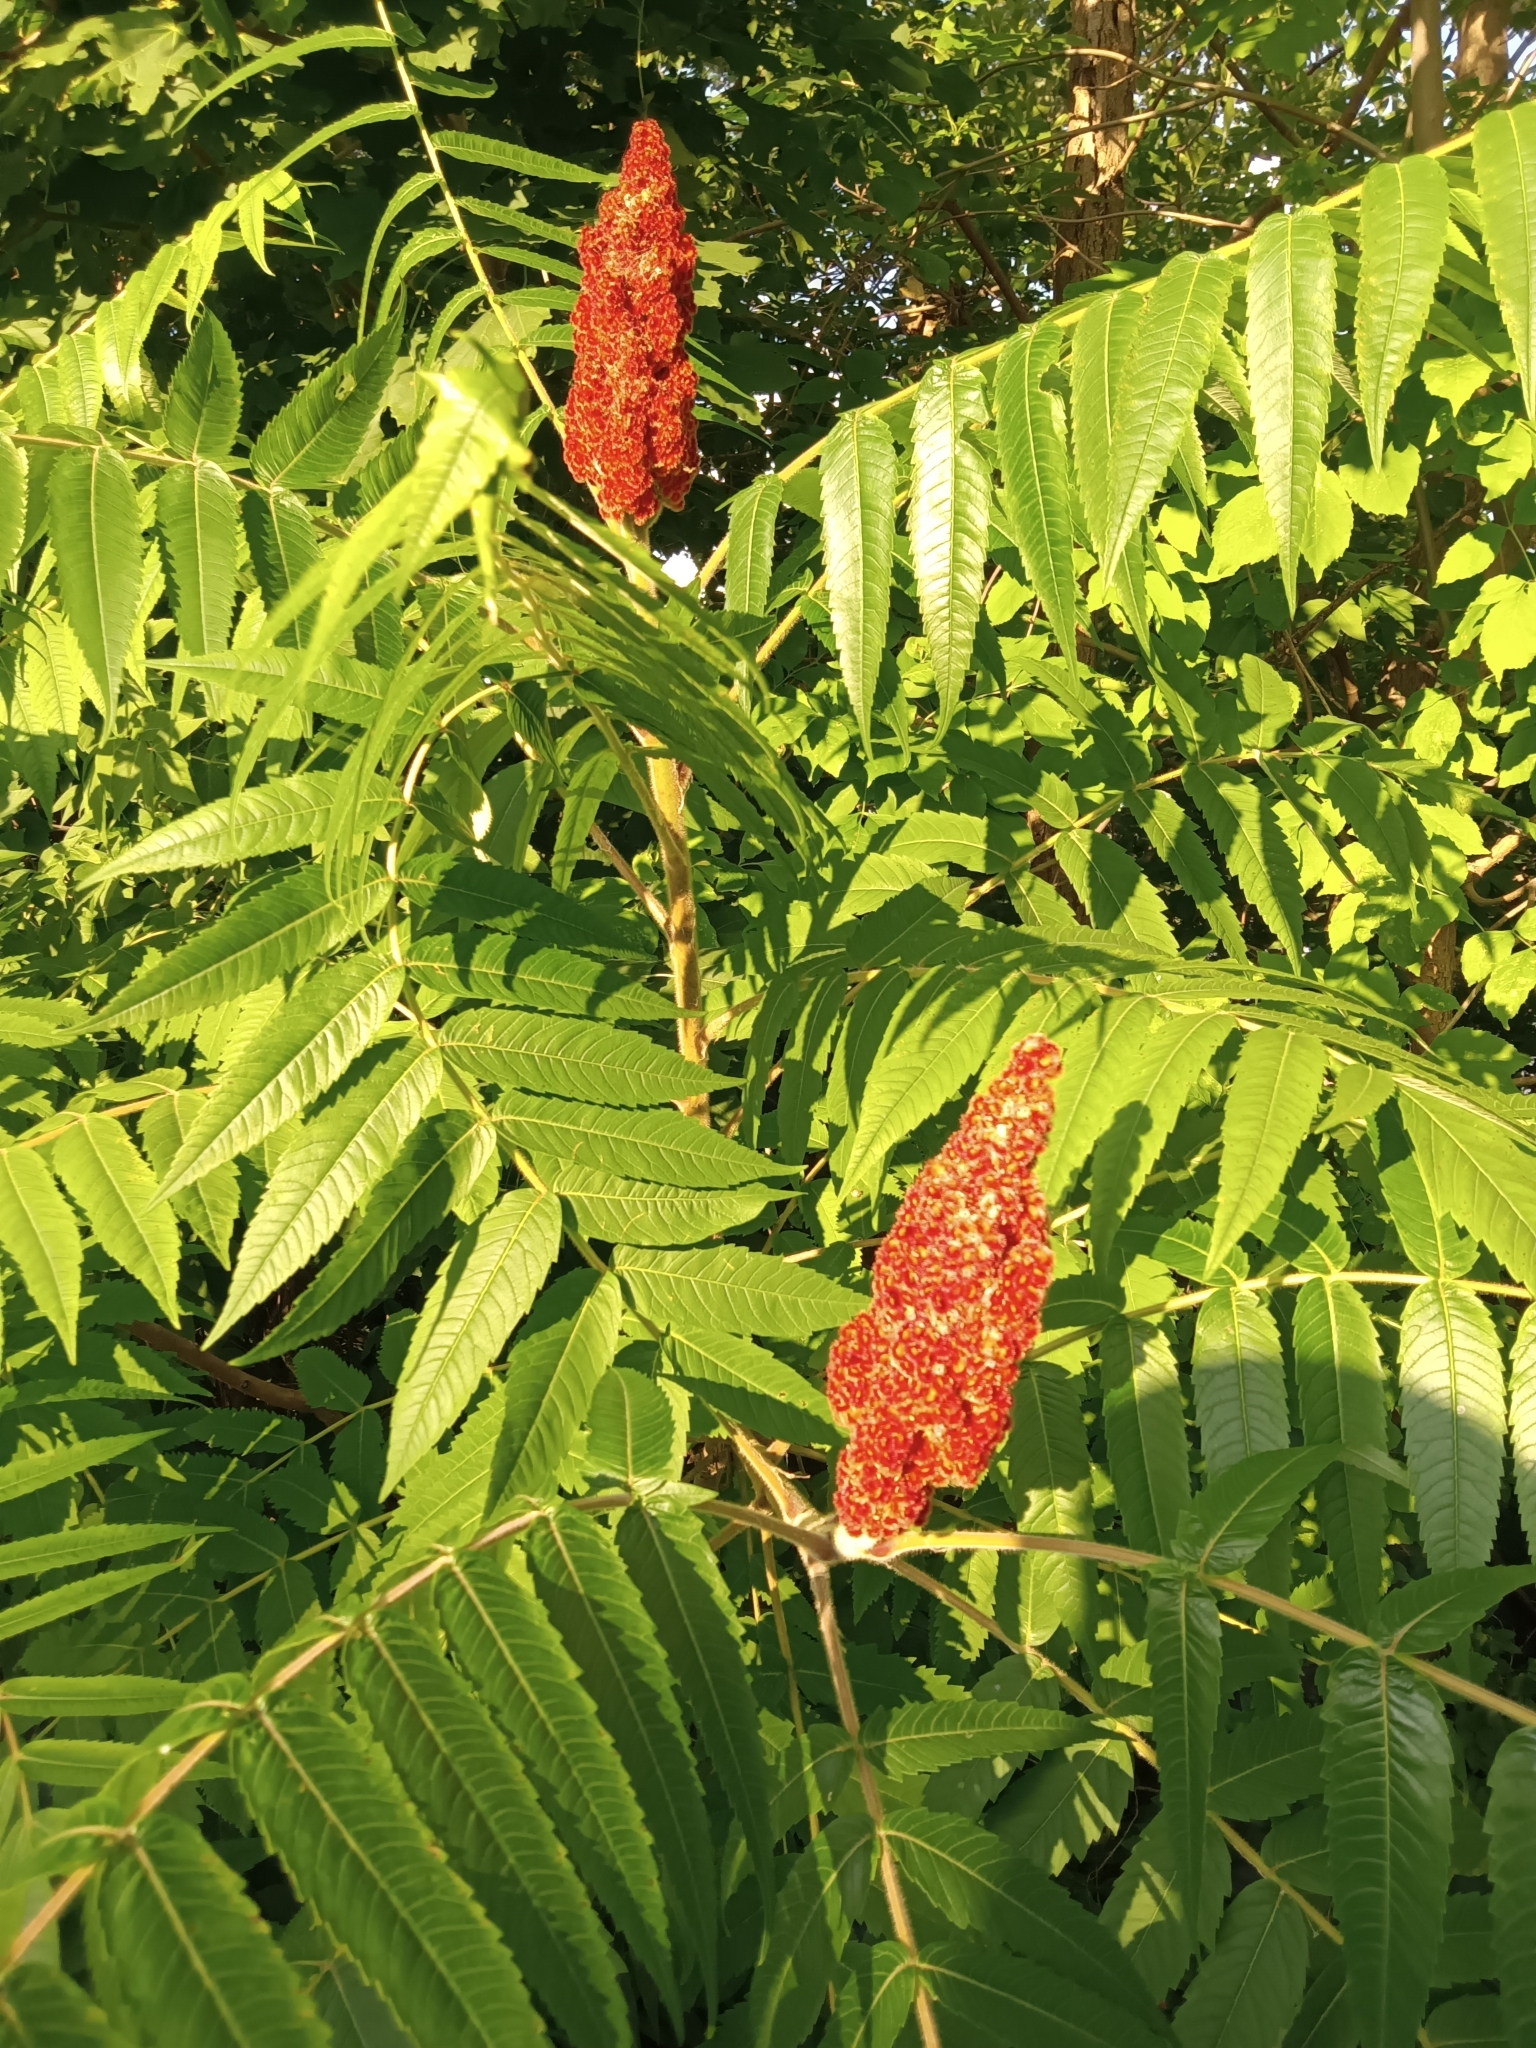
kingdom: Plantae
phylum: Tracheophyta
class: Magnoliopsida
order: Sapindales
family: Anacardiaceae
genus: Rhus
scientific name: Rhus typhina
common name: Staghorn sumac
